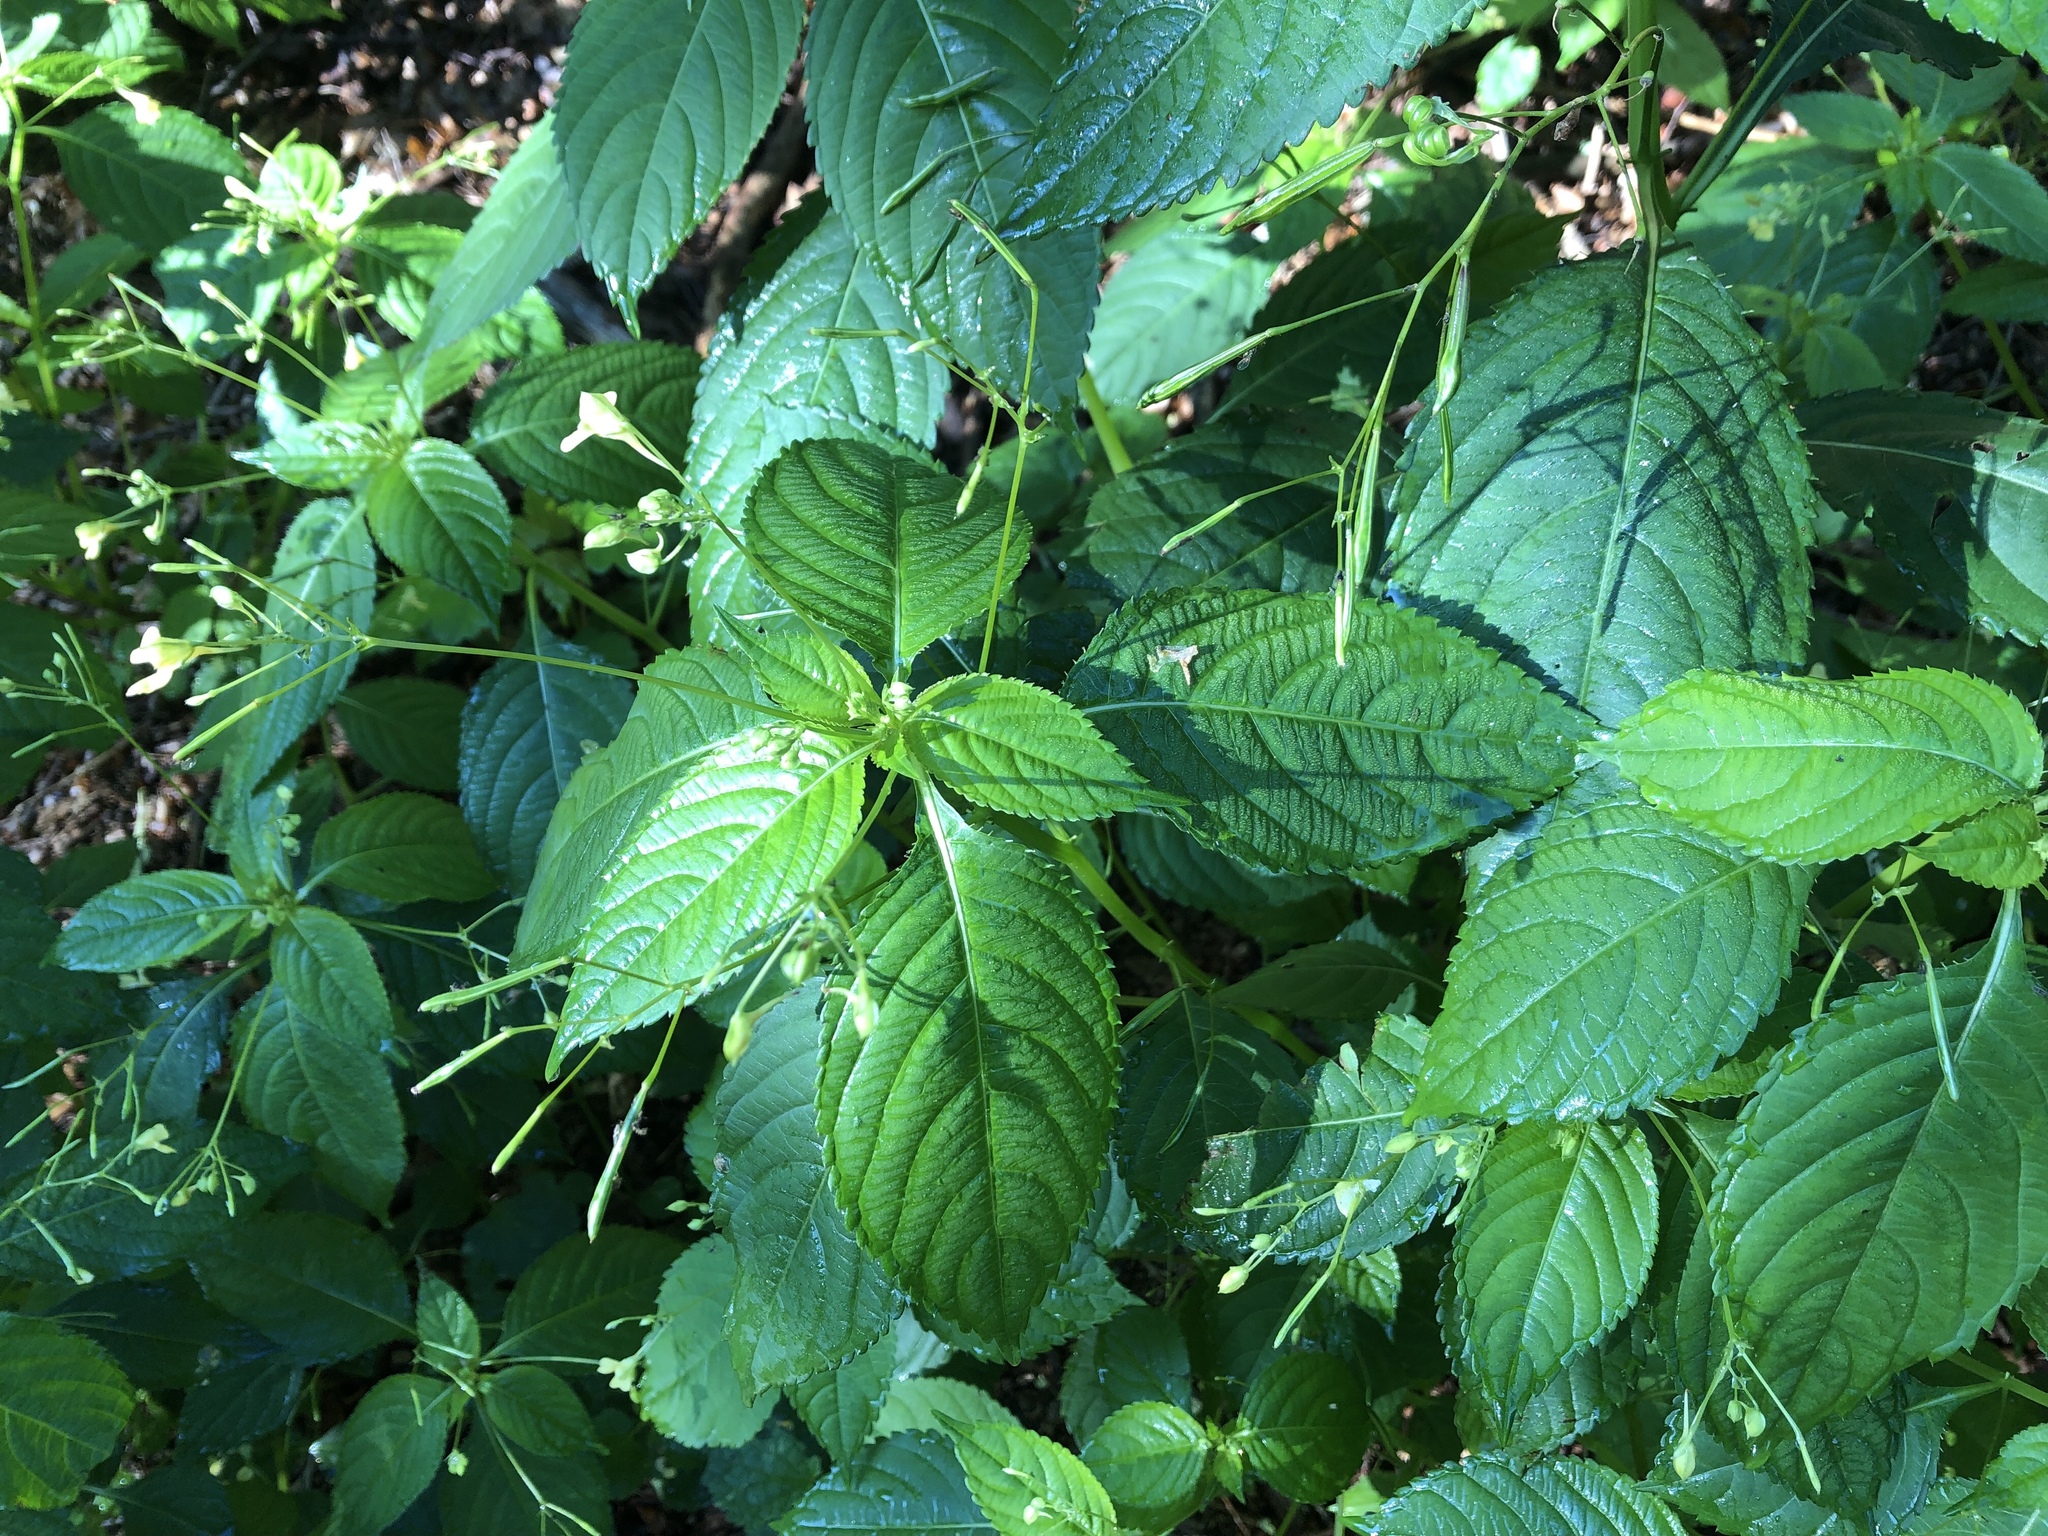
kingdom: Plantae
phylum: Tracheophyta
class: Magnoliopsida
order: Ericales
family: Balsaminaceae
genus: Impatiens
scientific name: Impatiens parviflora
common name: Small balsam
